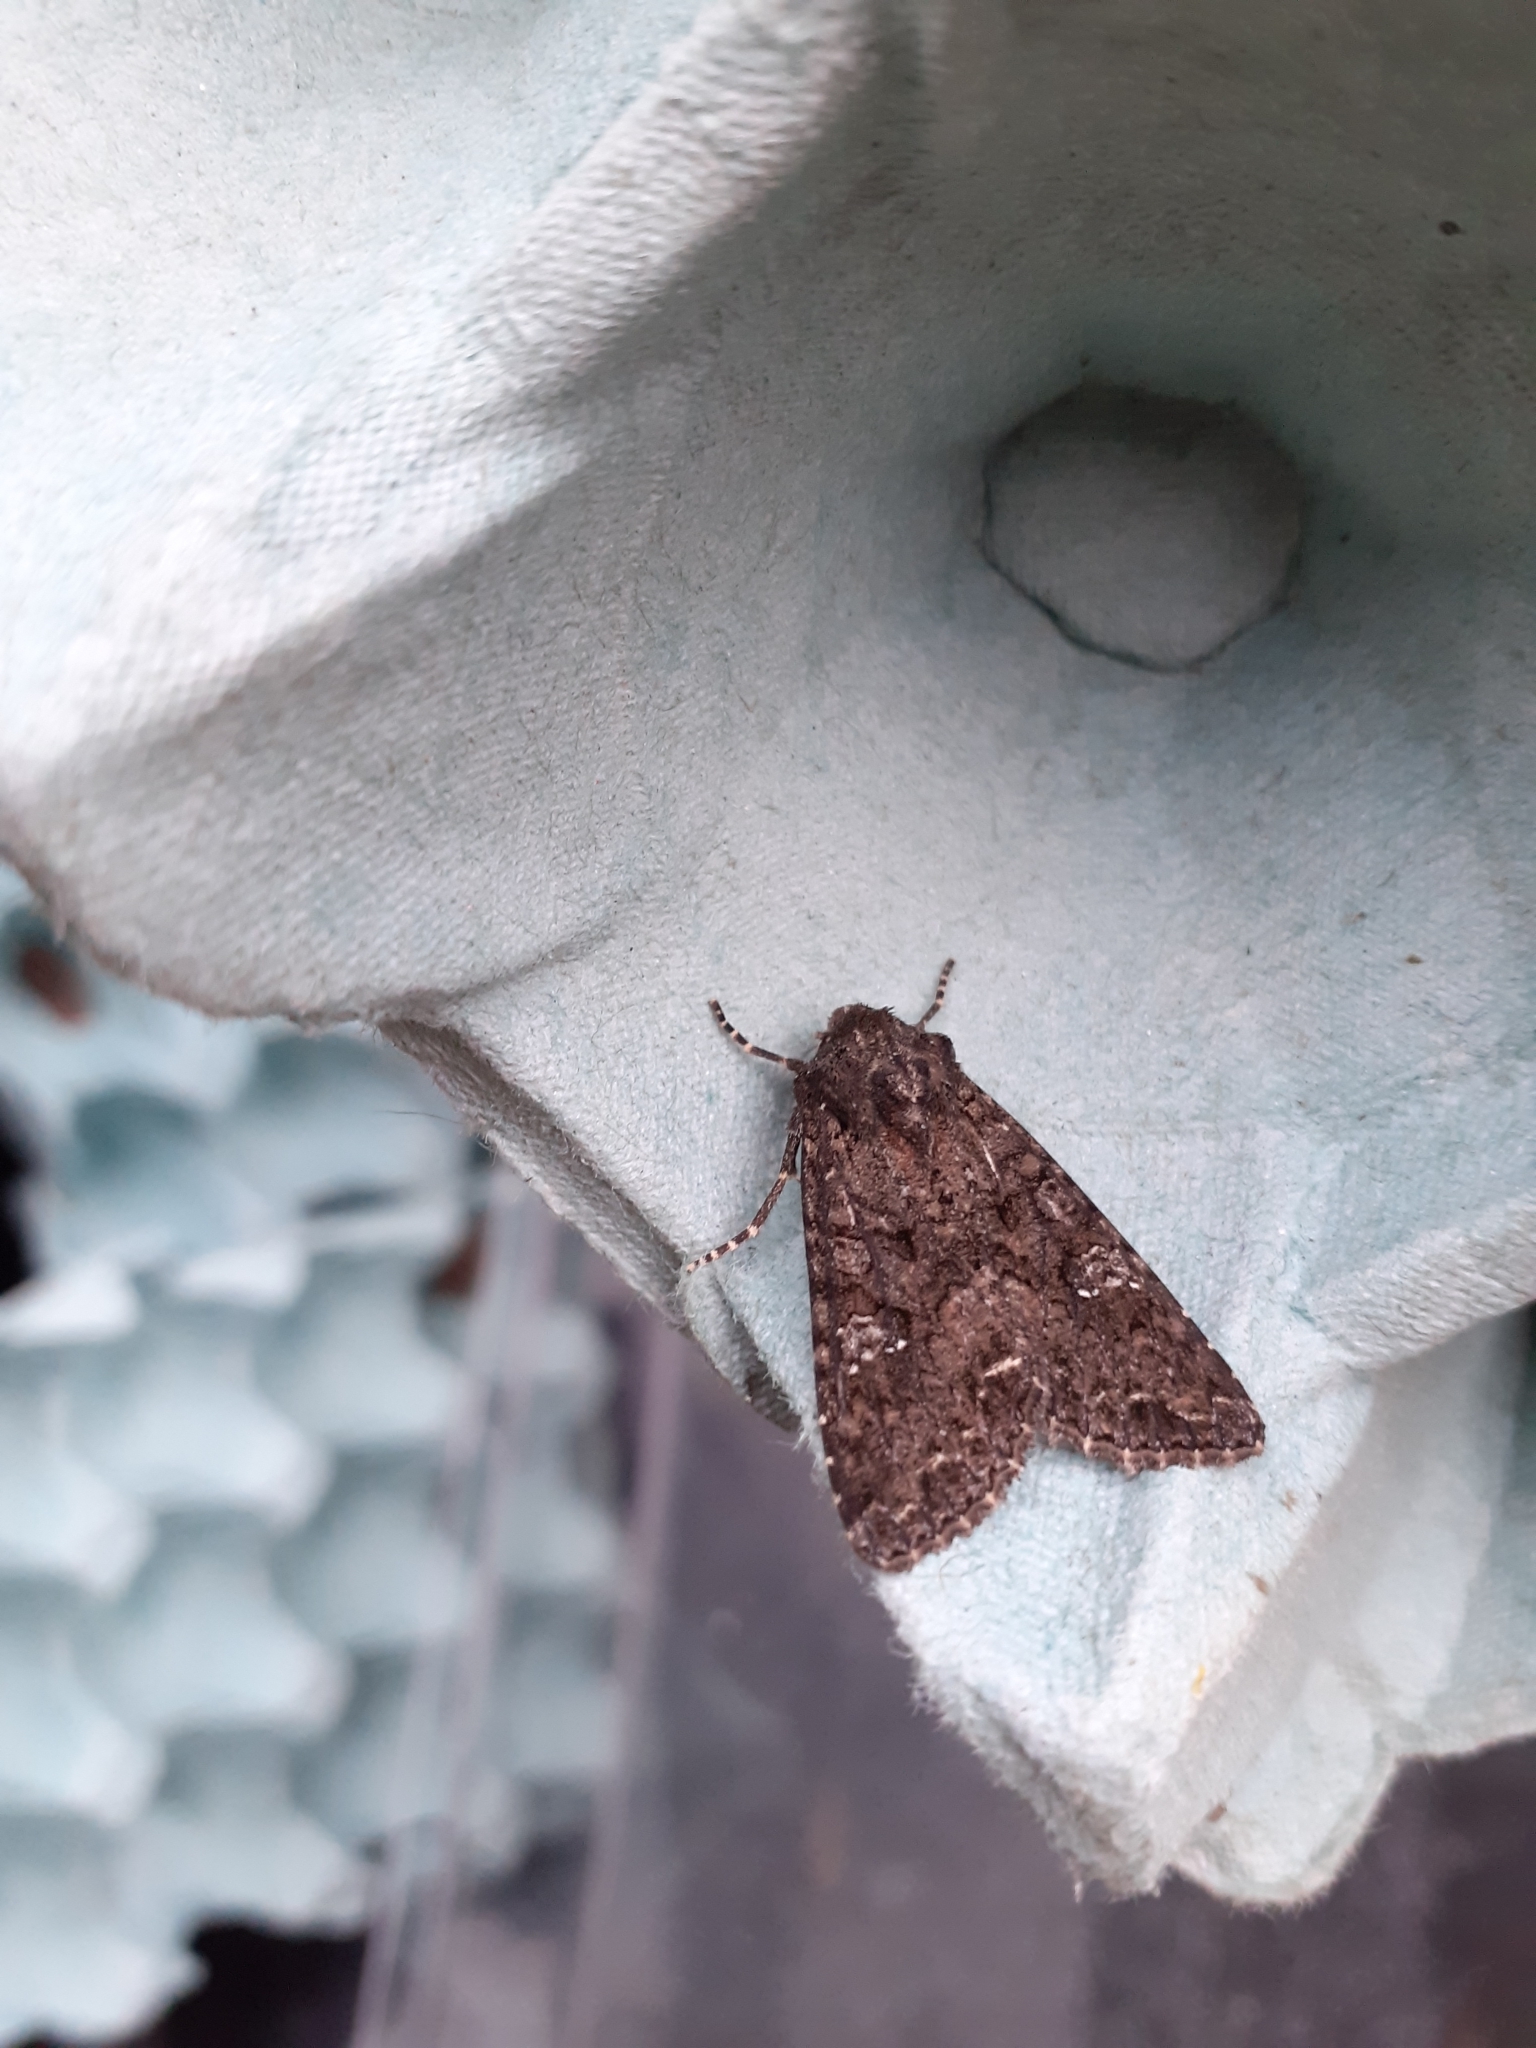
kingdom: Animalia
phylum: Arthropoda
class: Insecta
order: Lepidoptera
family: Noctuidae
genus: Mamestra
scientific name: Mamestra brassicae
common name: Cabbage moth
